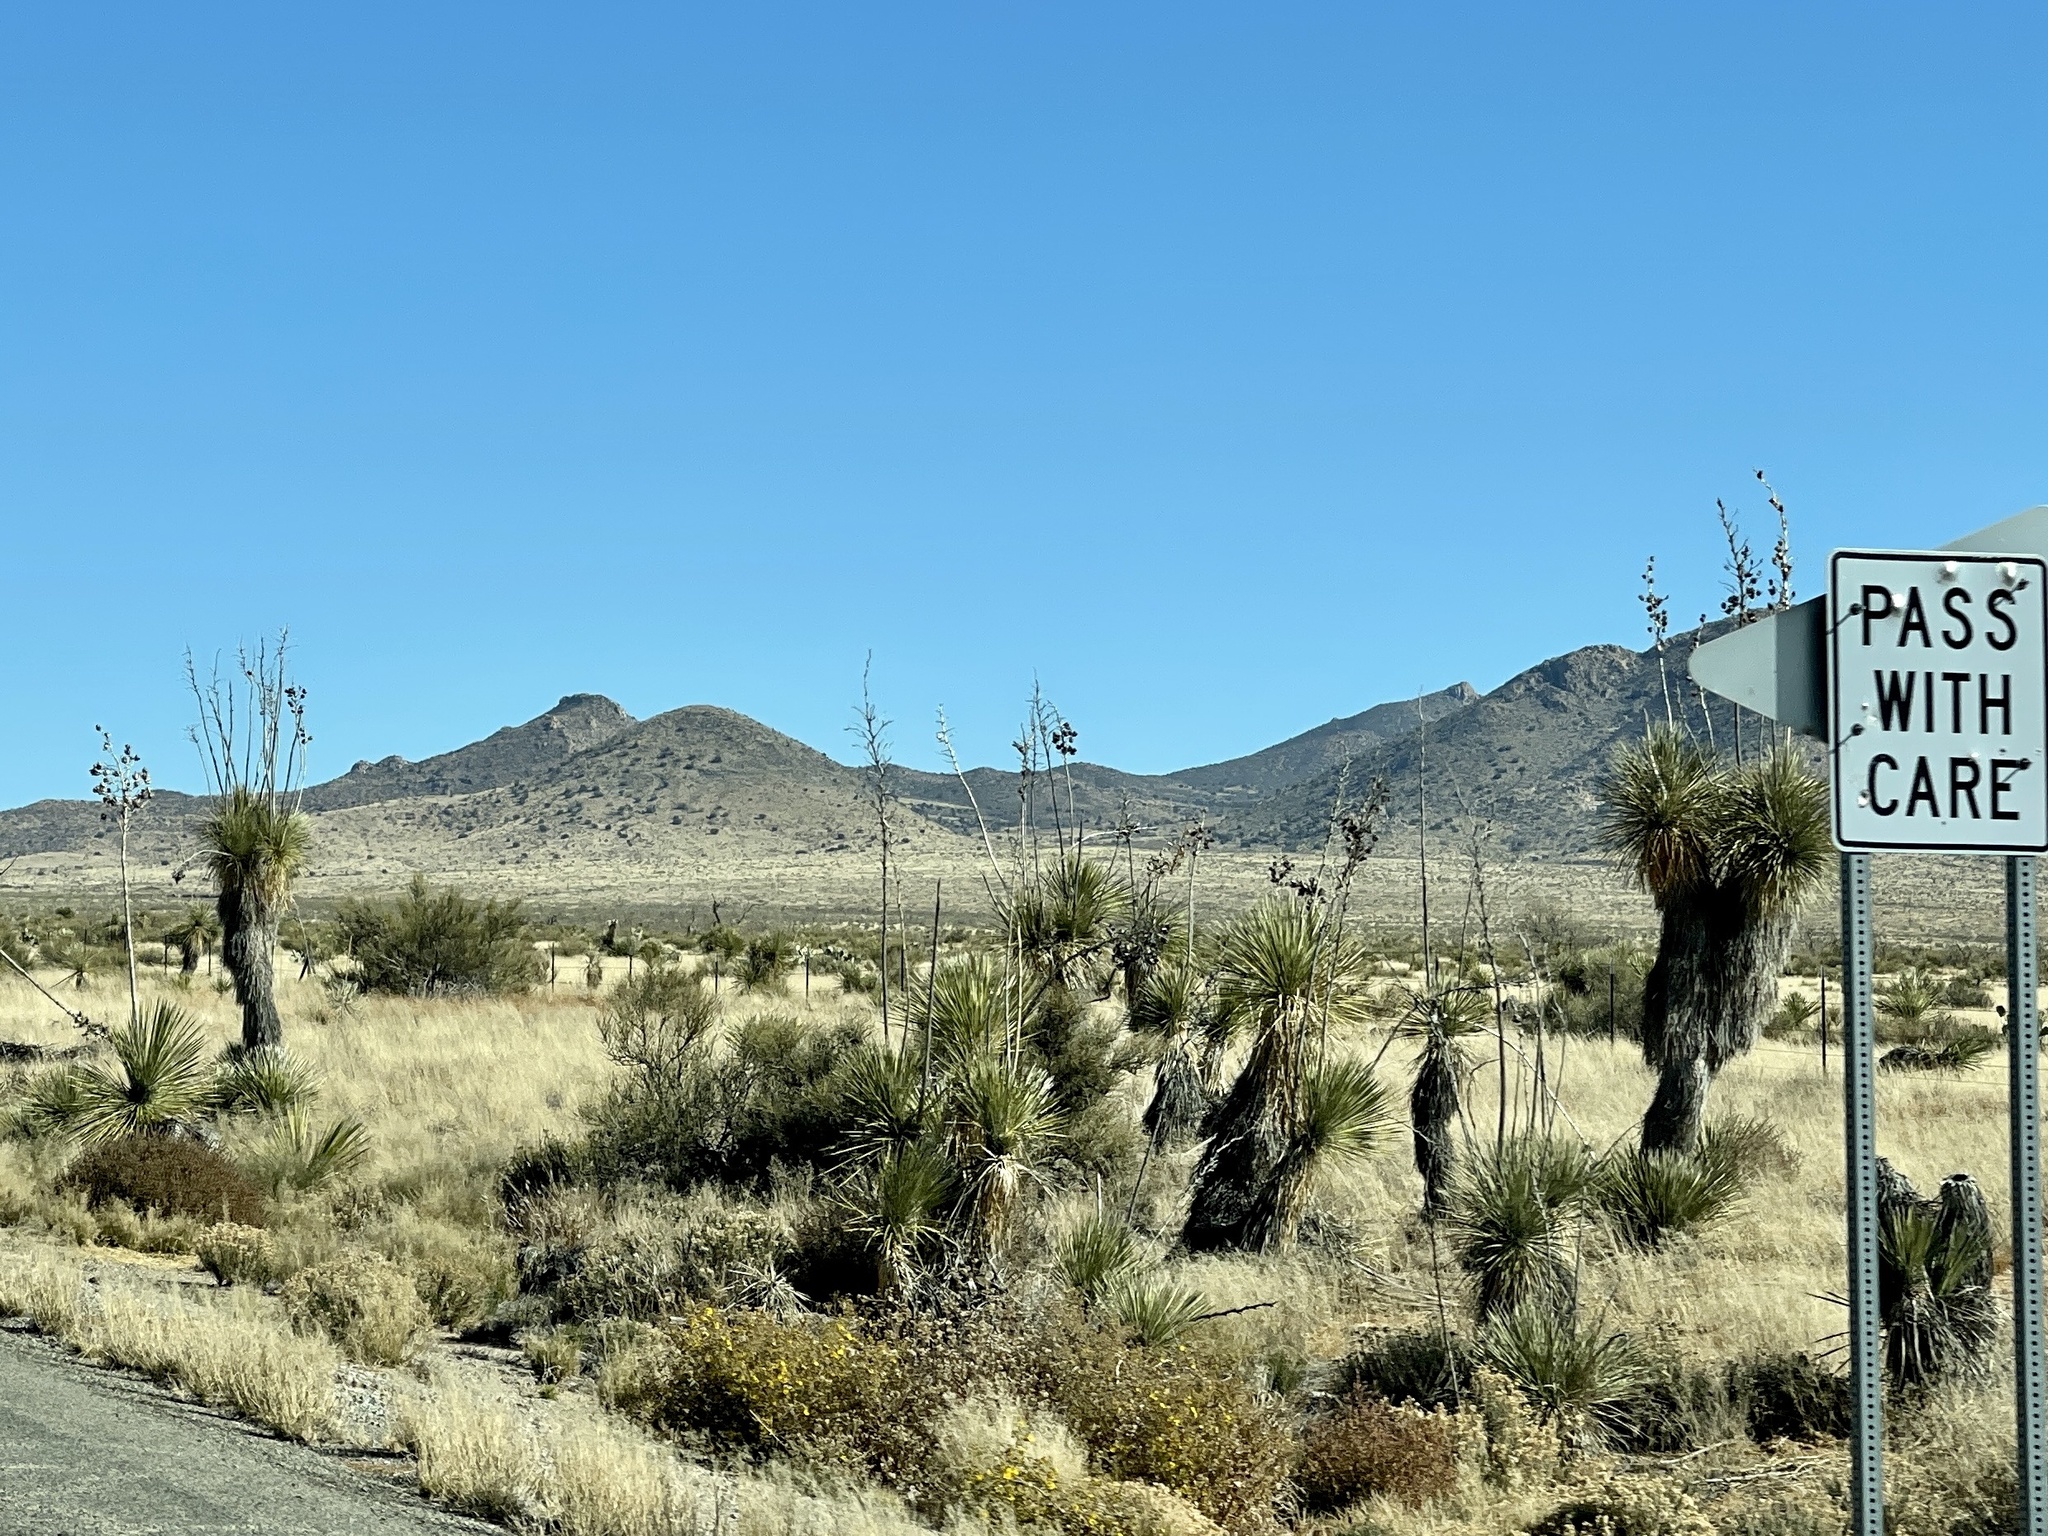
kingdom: Plantae
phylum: Tracheophyta
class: Liliopsida
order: Asparagales
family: Asparagaceae
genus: Yucca
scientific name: Yucca elata
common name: Palmella
